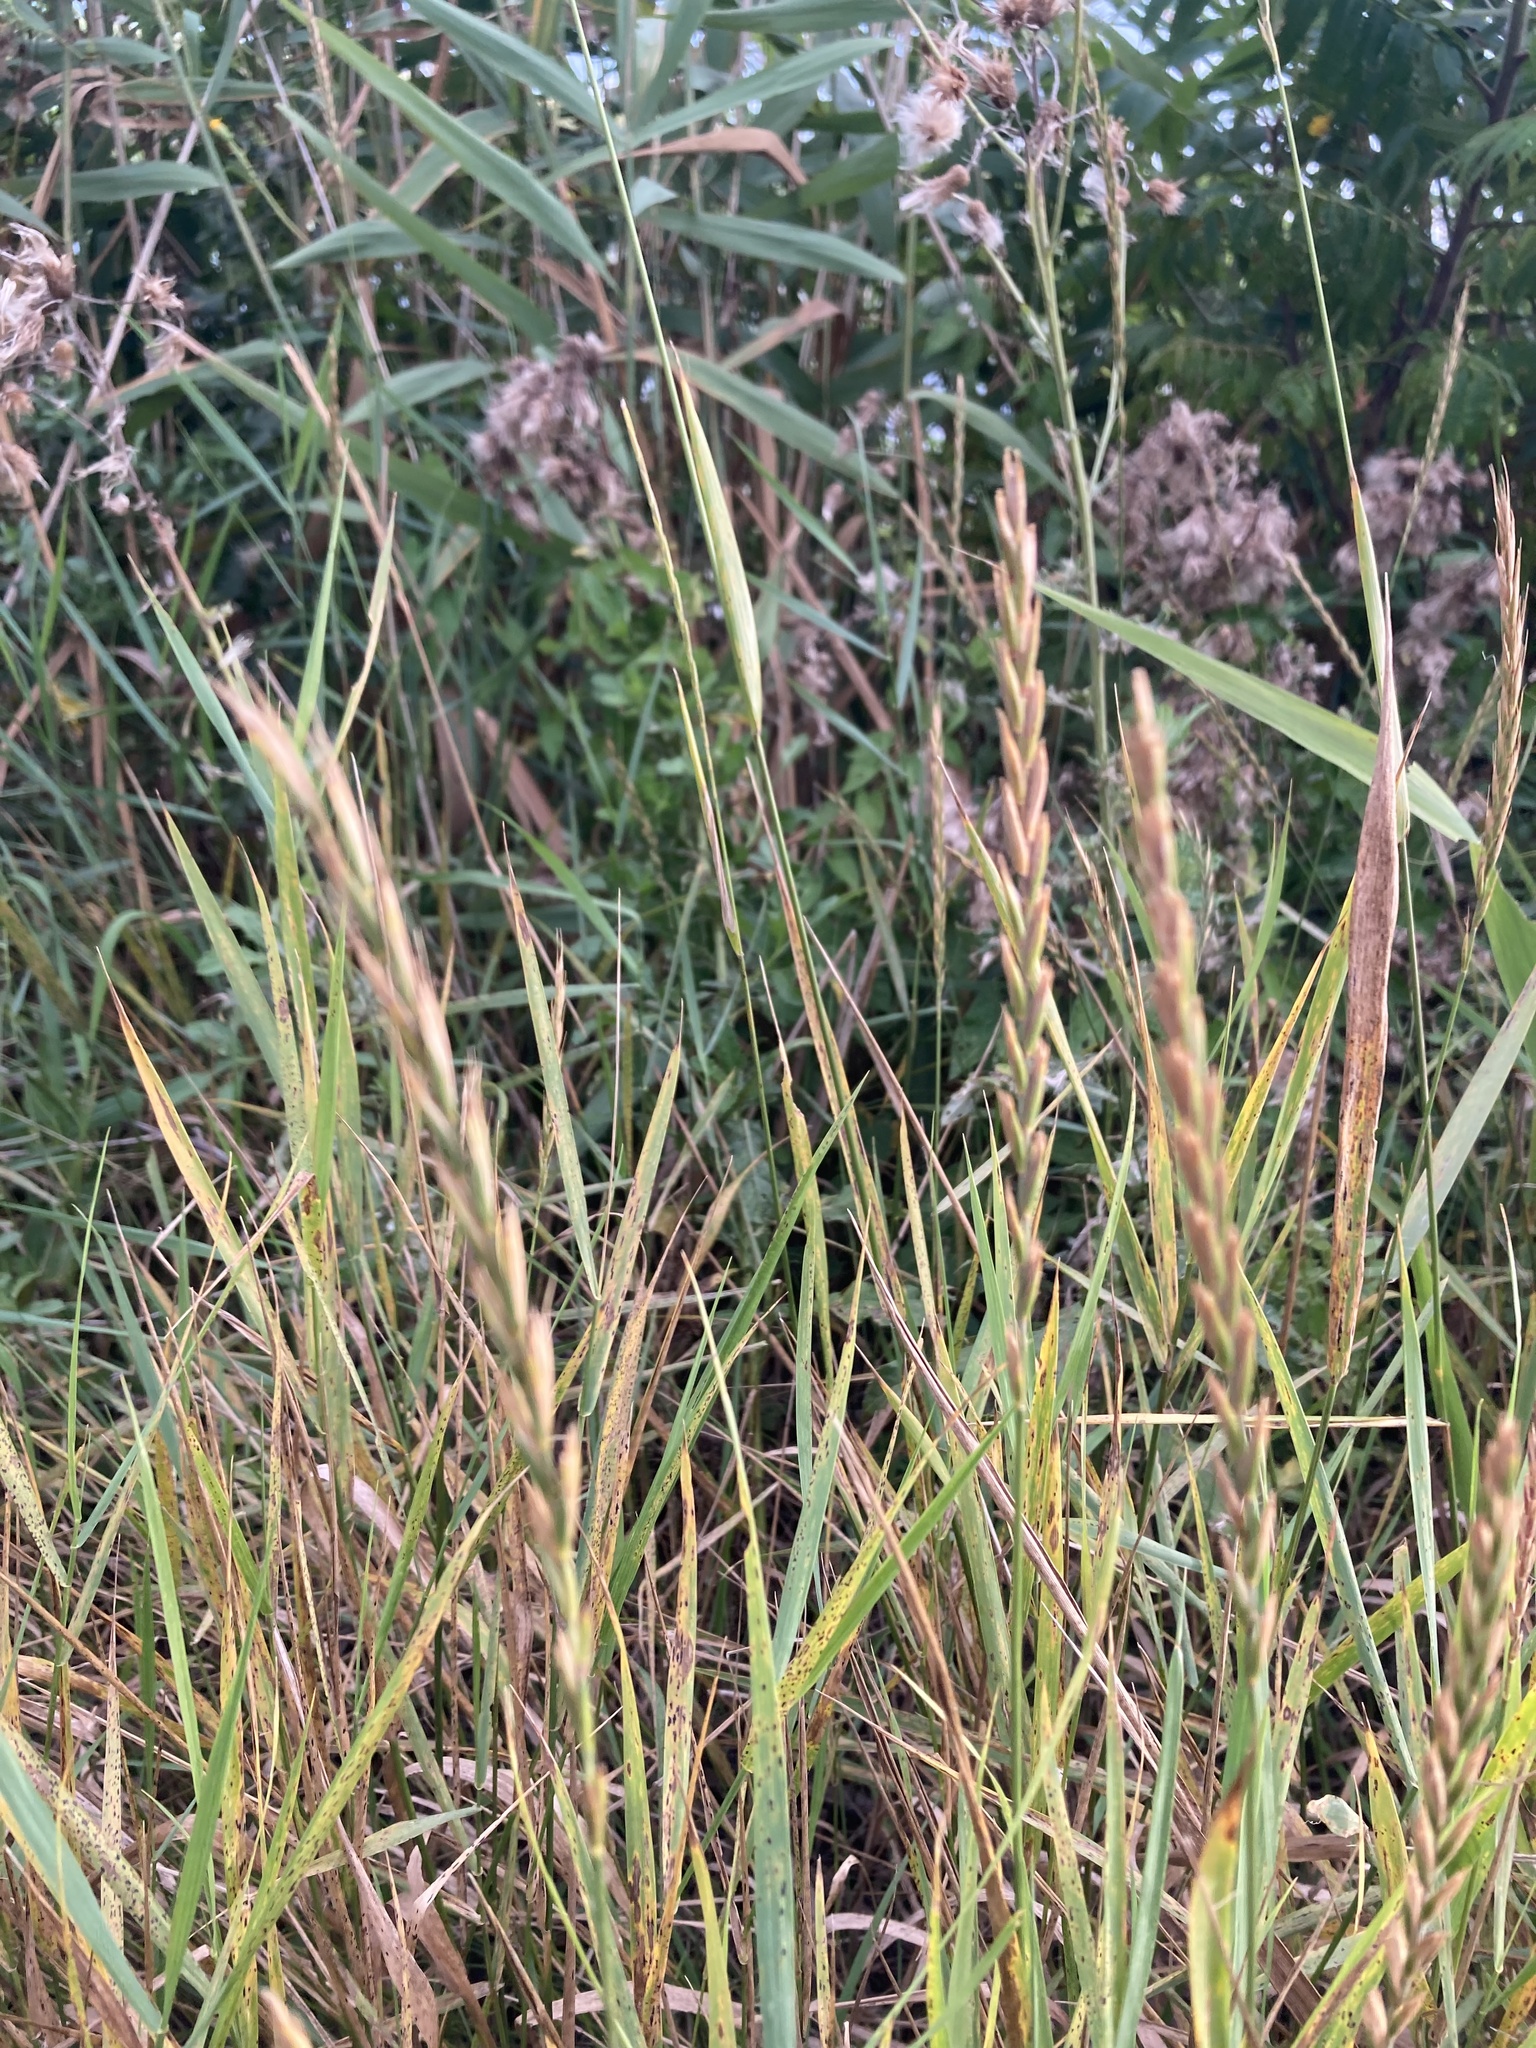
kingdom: Plantae
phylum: Tracheophyta
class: Liliopsida
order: Poales
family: Poaceae
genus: Elymus
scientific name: Elymus repens
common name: Quackgrass
